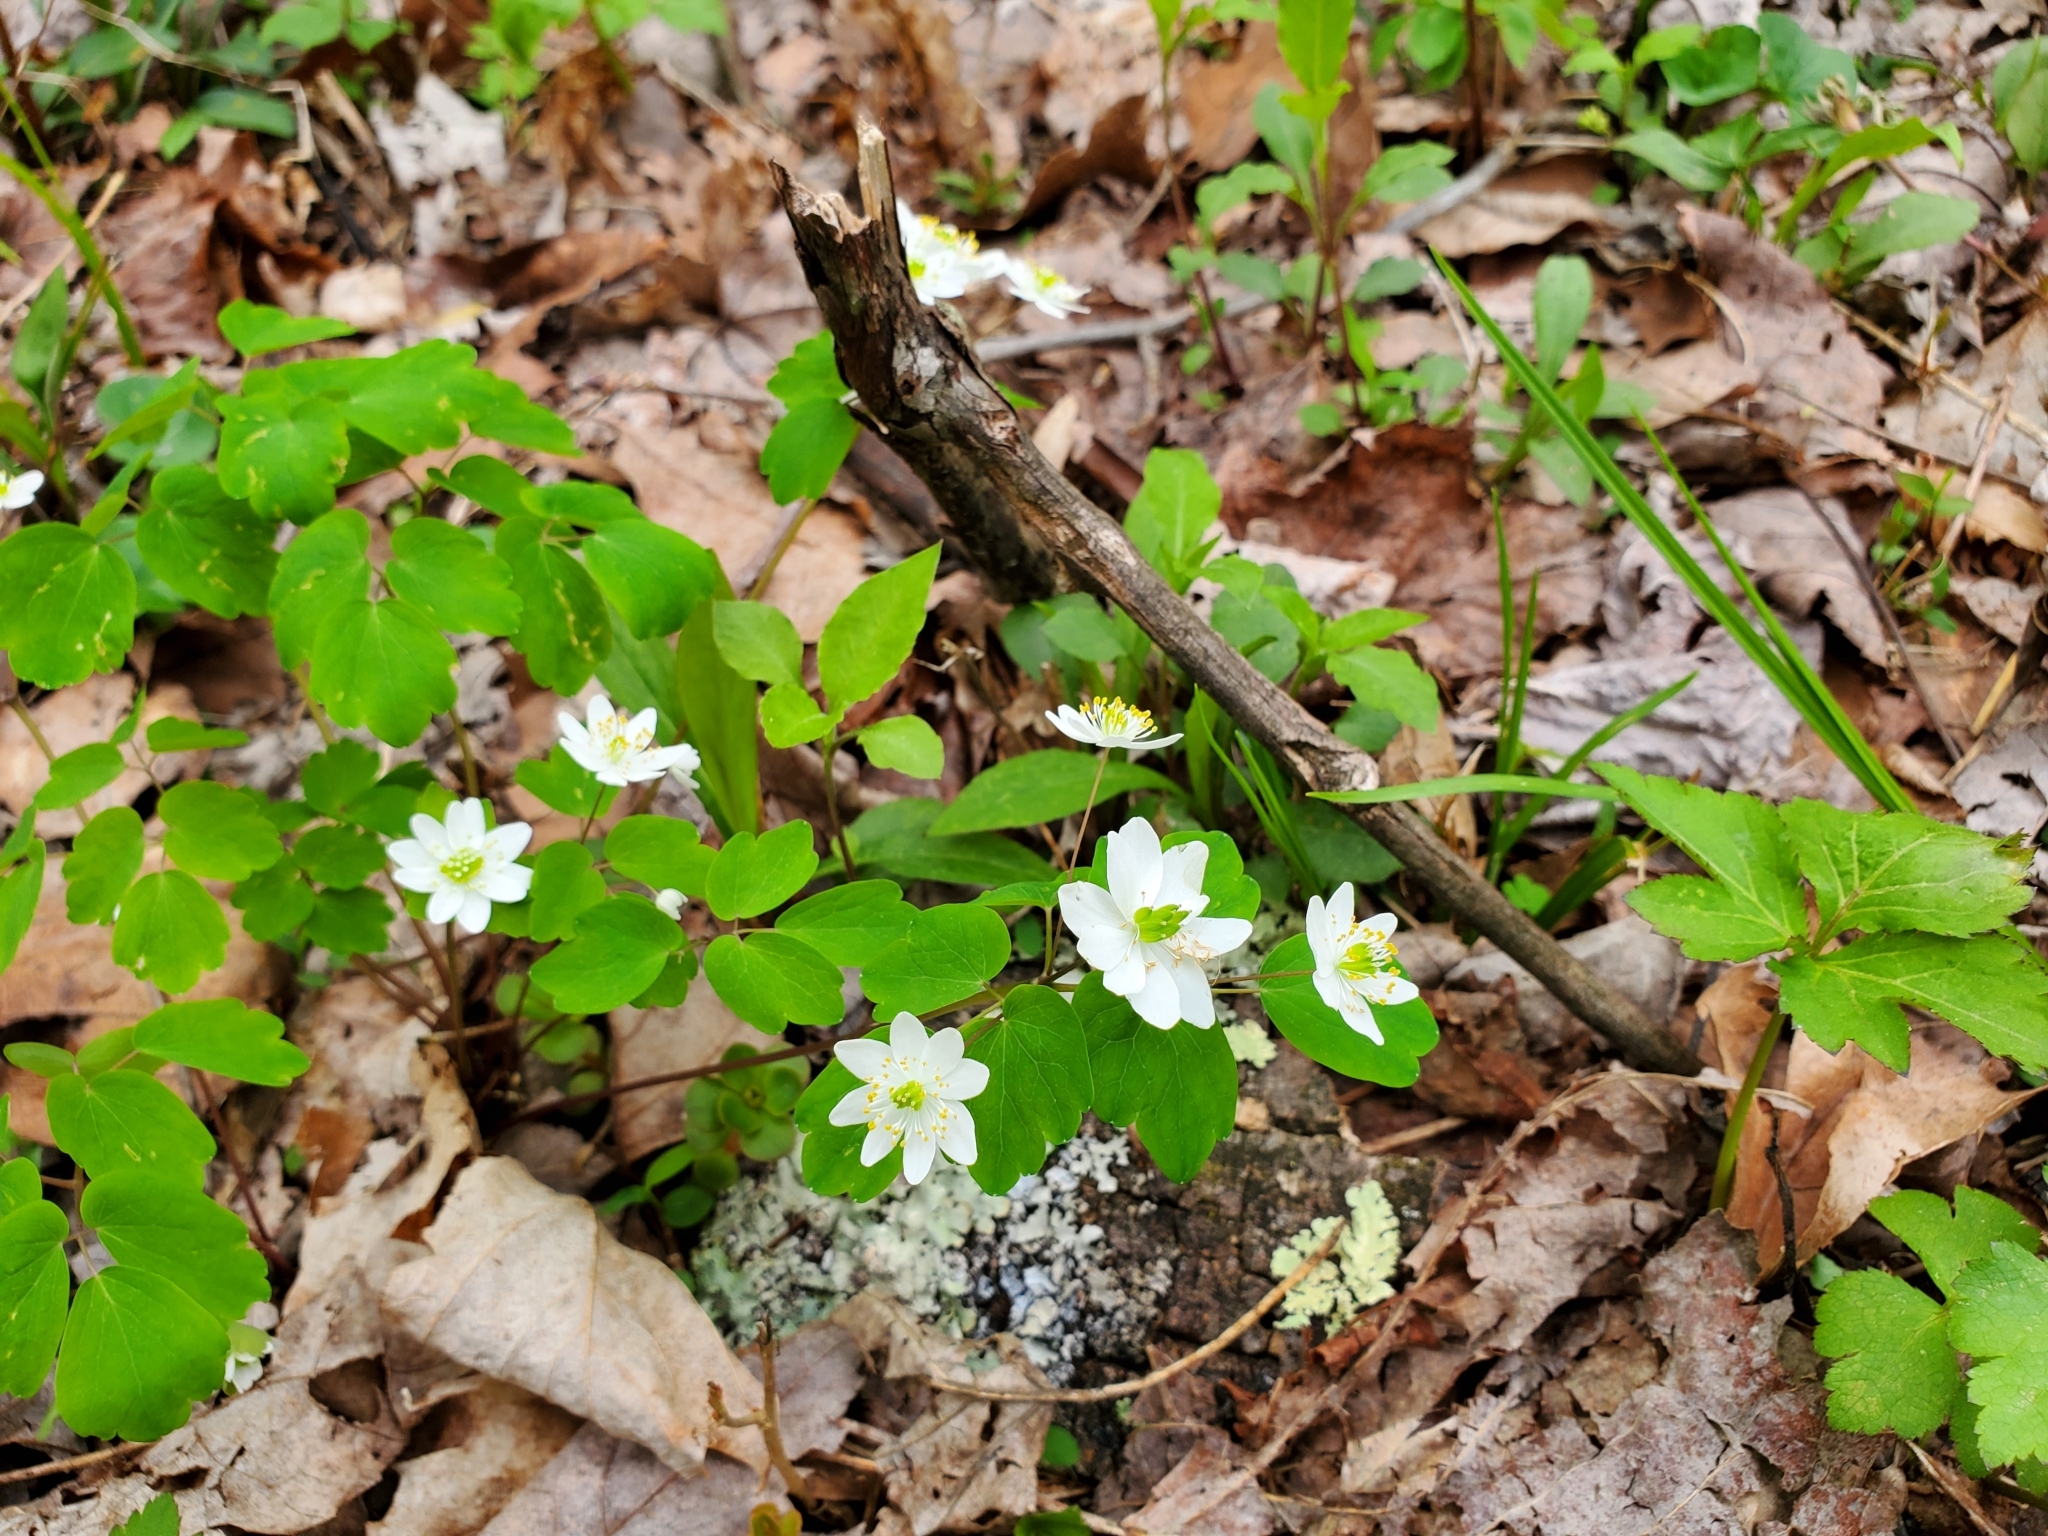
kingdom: Plantae
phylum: Tracheophyta
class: Magnoliopsida
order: Ranunculales
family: Ranunculaceae
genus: Thalictrum
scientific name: Thalictrum thalictroides
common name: Rue-anemone
